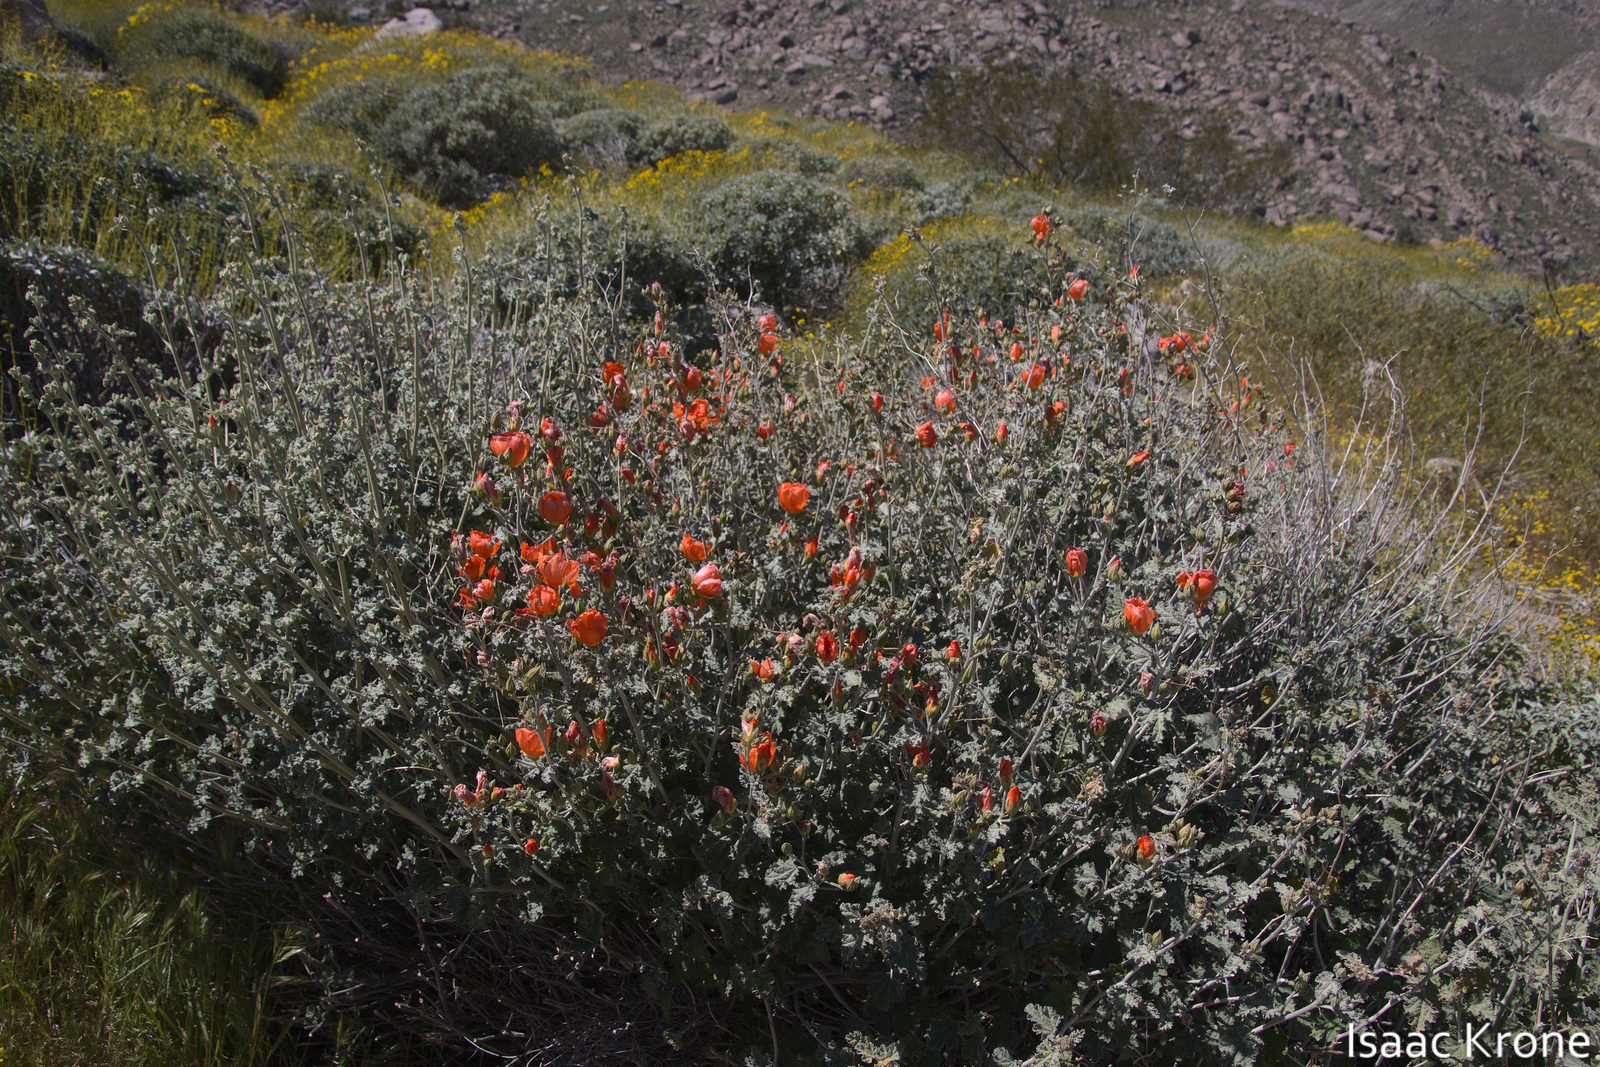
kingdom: Plantae
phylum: Tracheophyta
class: Magnoliopsida
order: Malvales
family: Malvaceae
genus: Sphaeralcea
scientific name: Sphaeralcea ambigua
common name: Apricot globe-mallow
